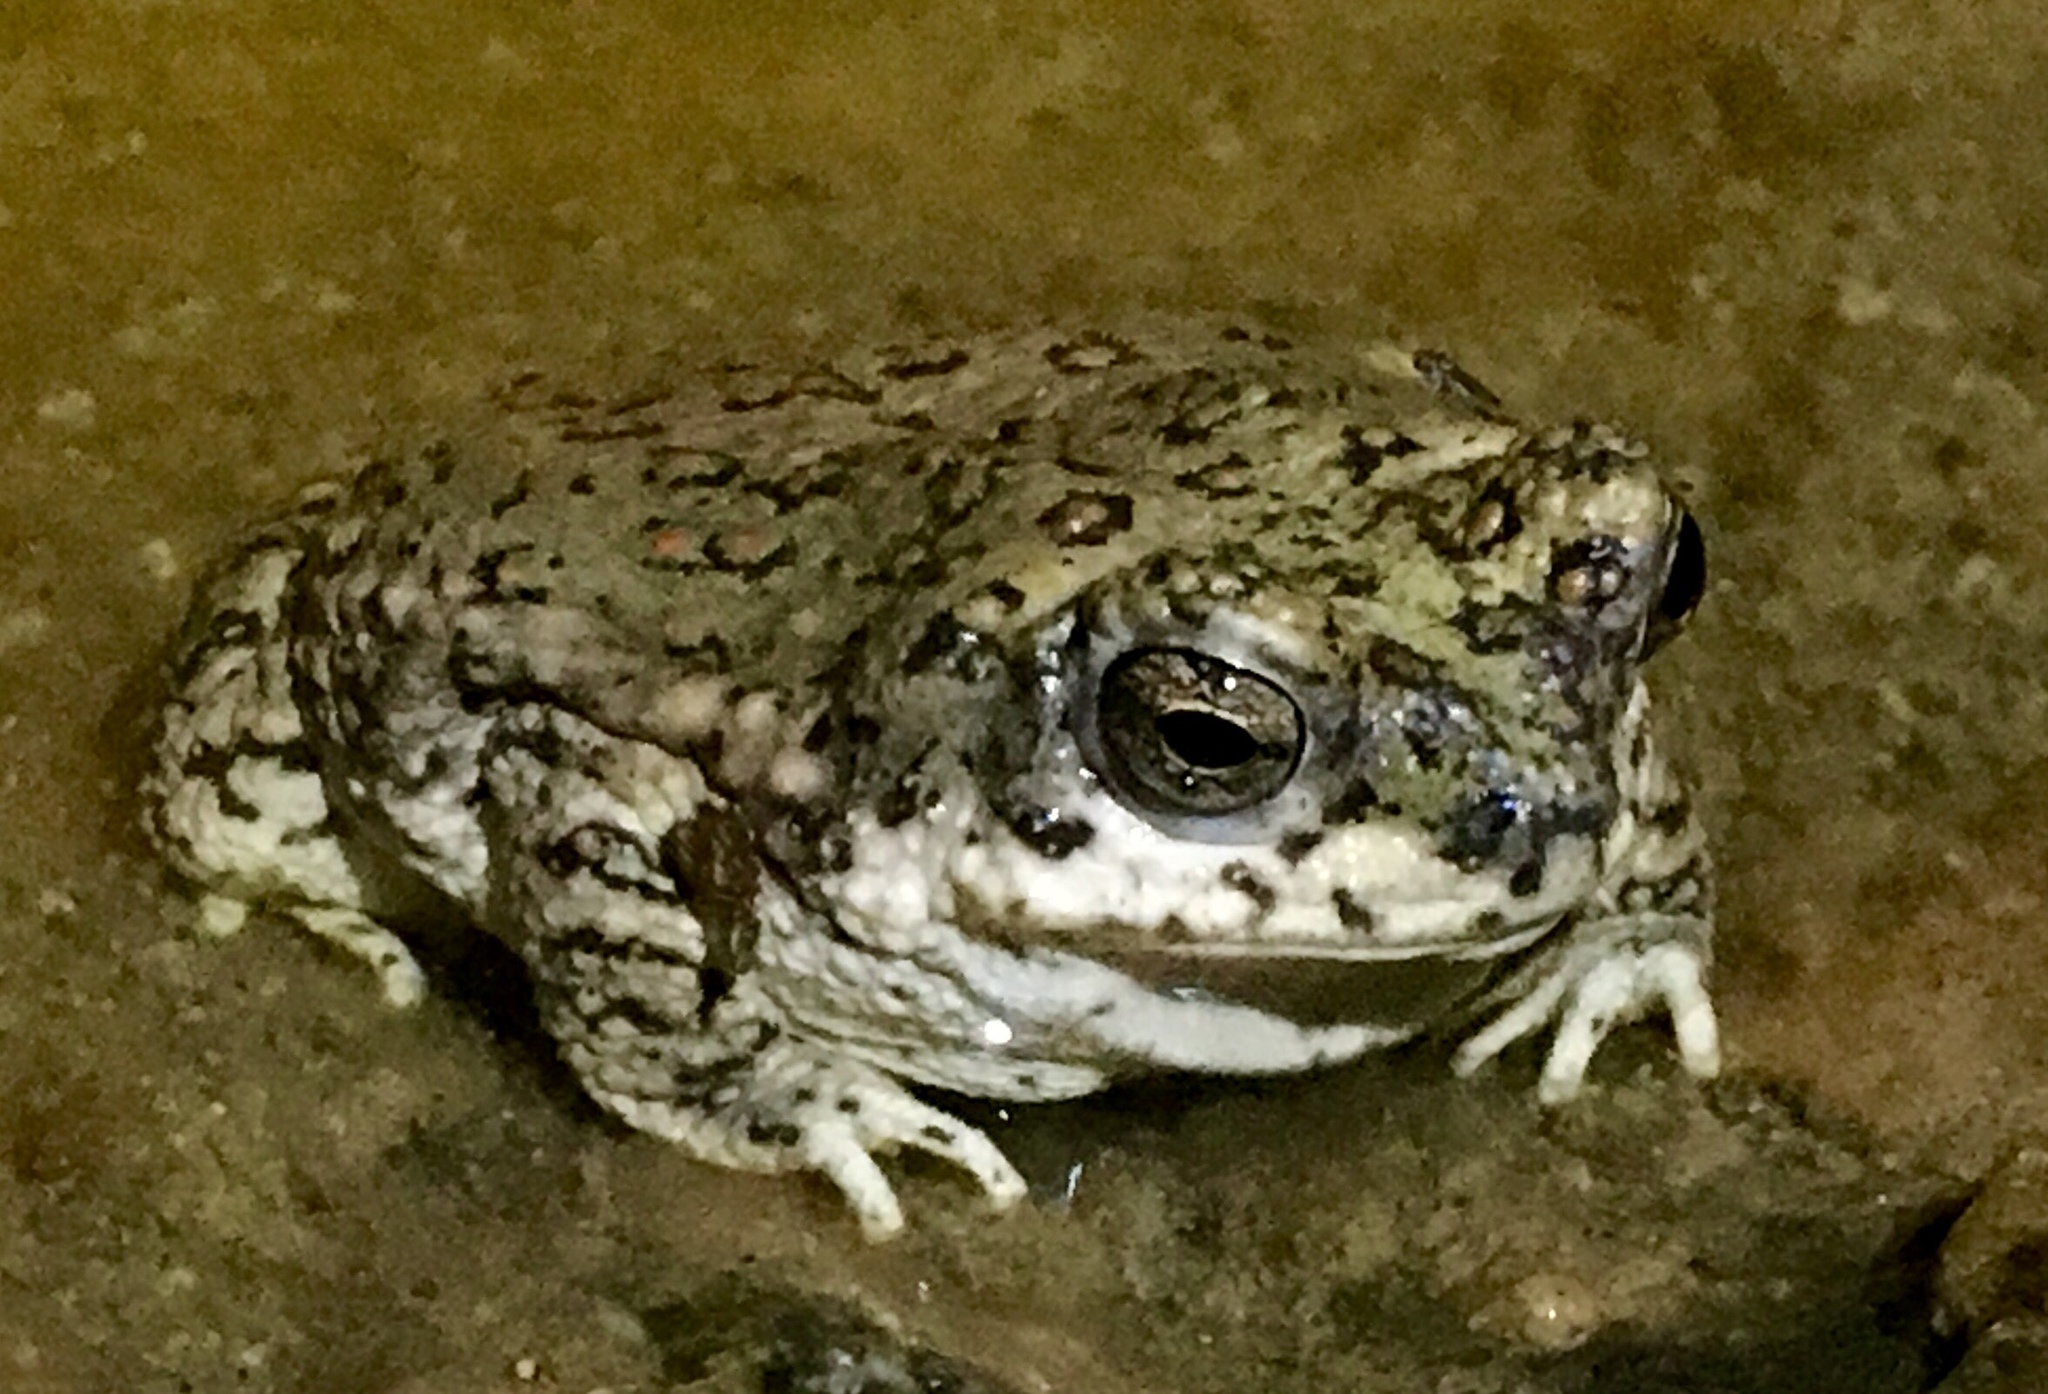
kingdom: Animalia
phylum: Chordata
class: Amphibia
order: Anura
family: Bufonidae
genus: Anaxyrus
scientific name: Anaxyrus punctatus
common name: Red-spotted toad
